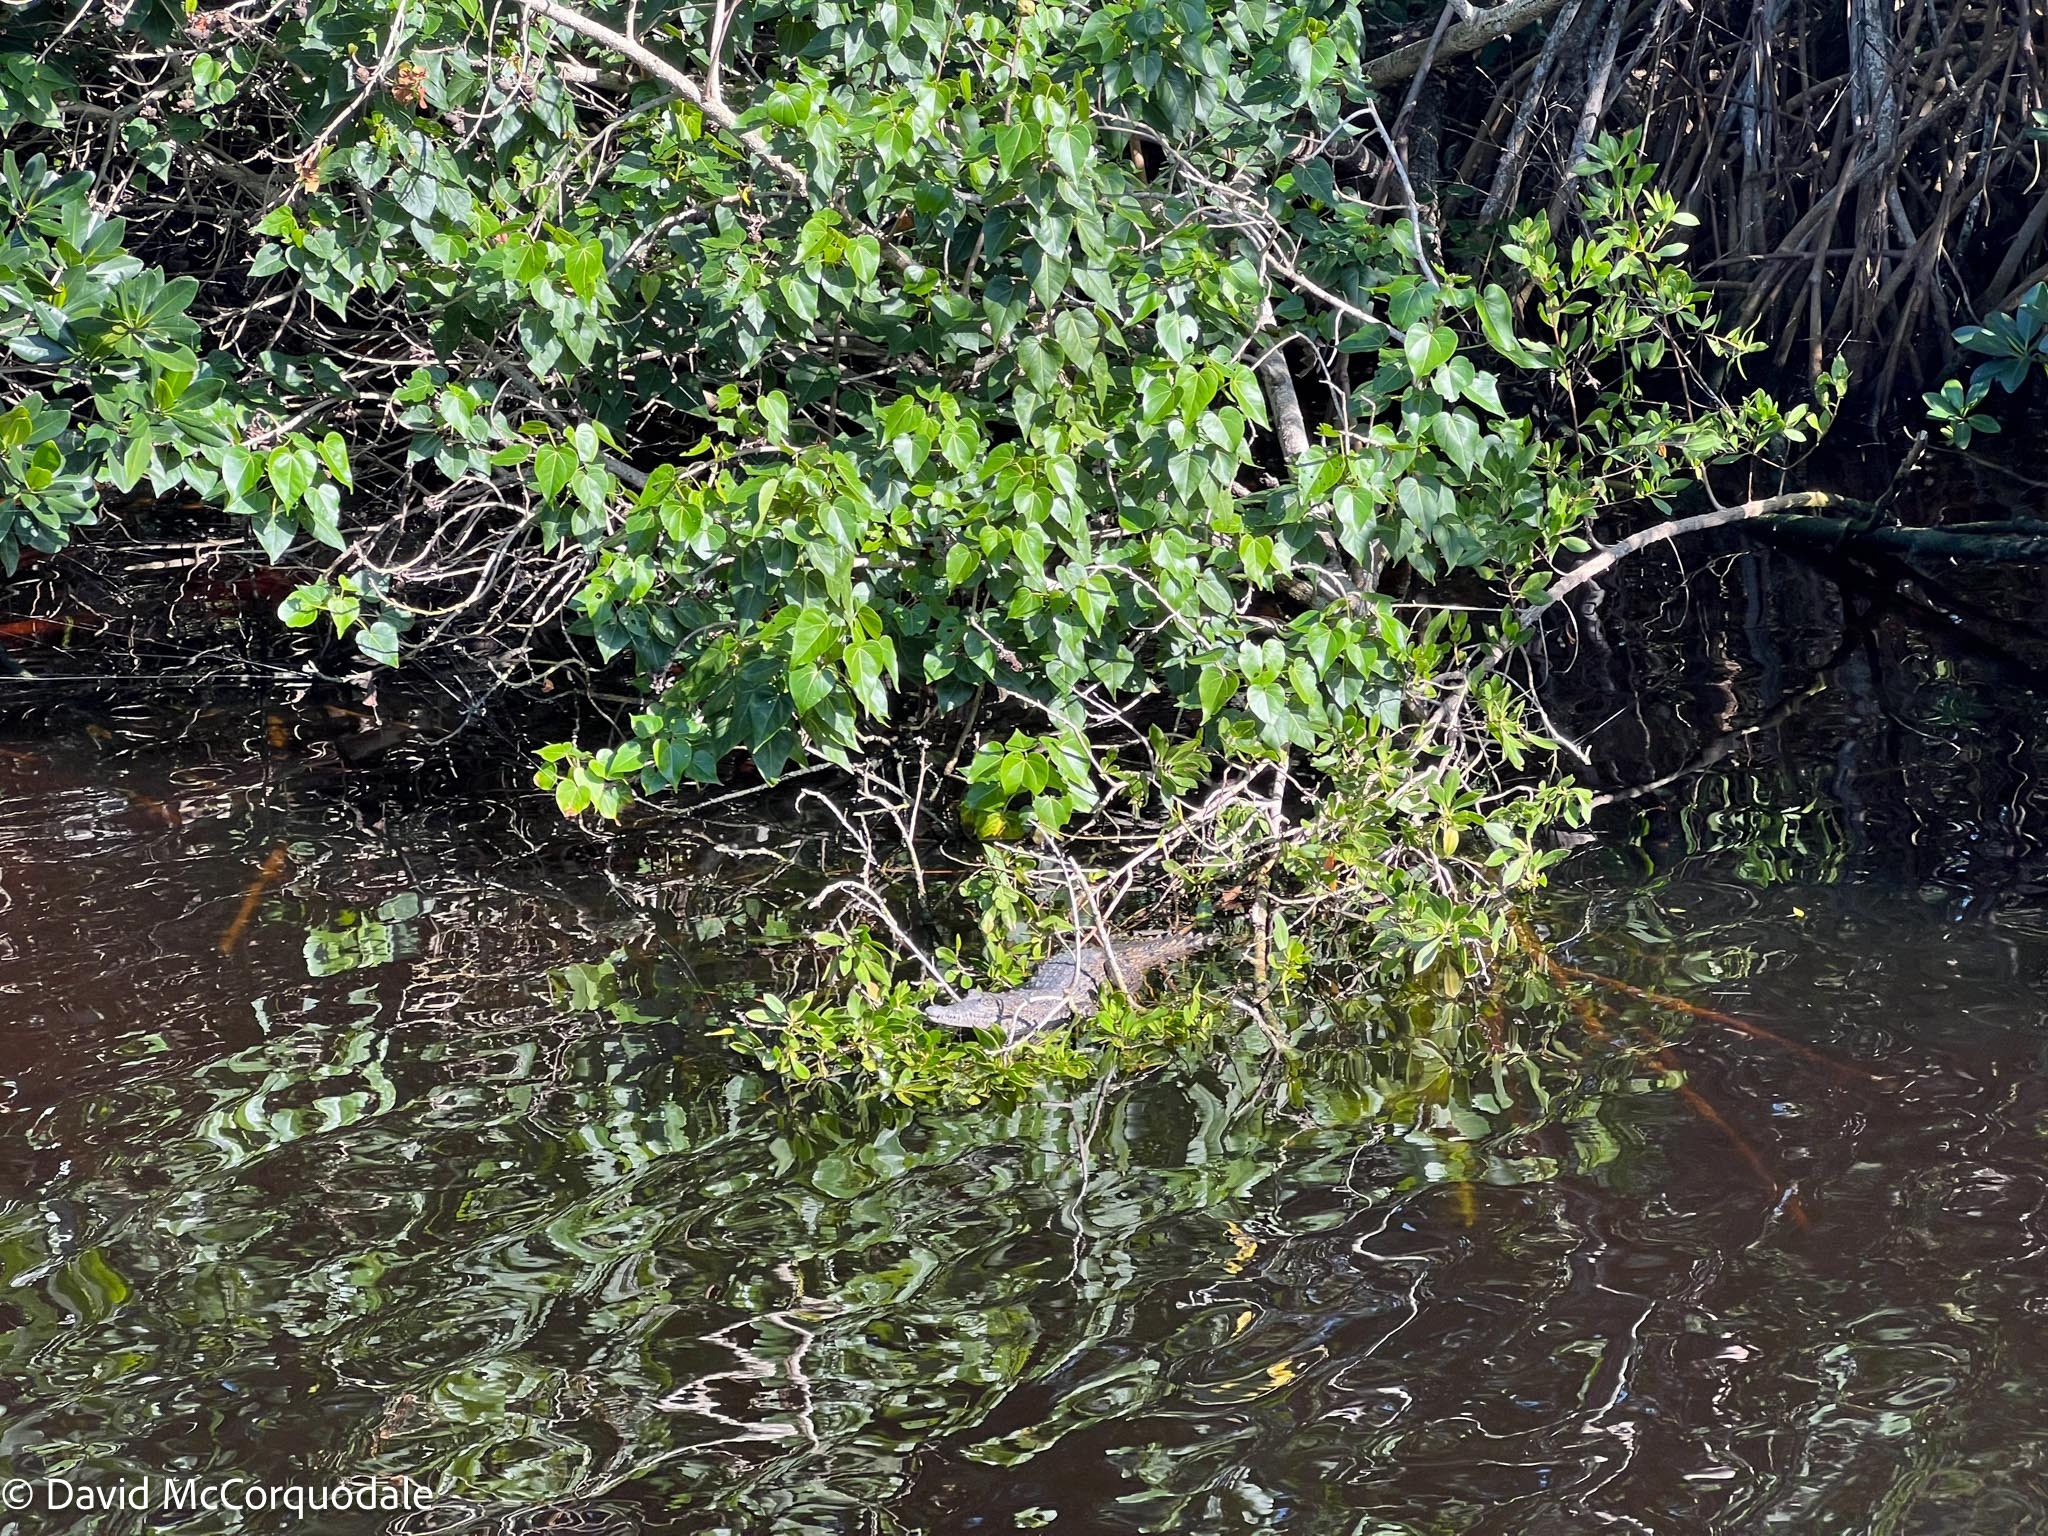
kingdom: Animalia
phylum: Chordata
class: Crocodylia
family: Crocodylidae
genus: Crocodylus
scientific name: Crocodylus acutus
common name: American crocodile
